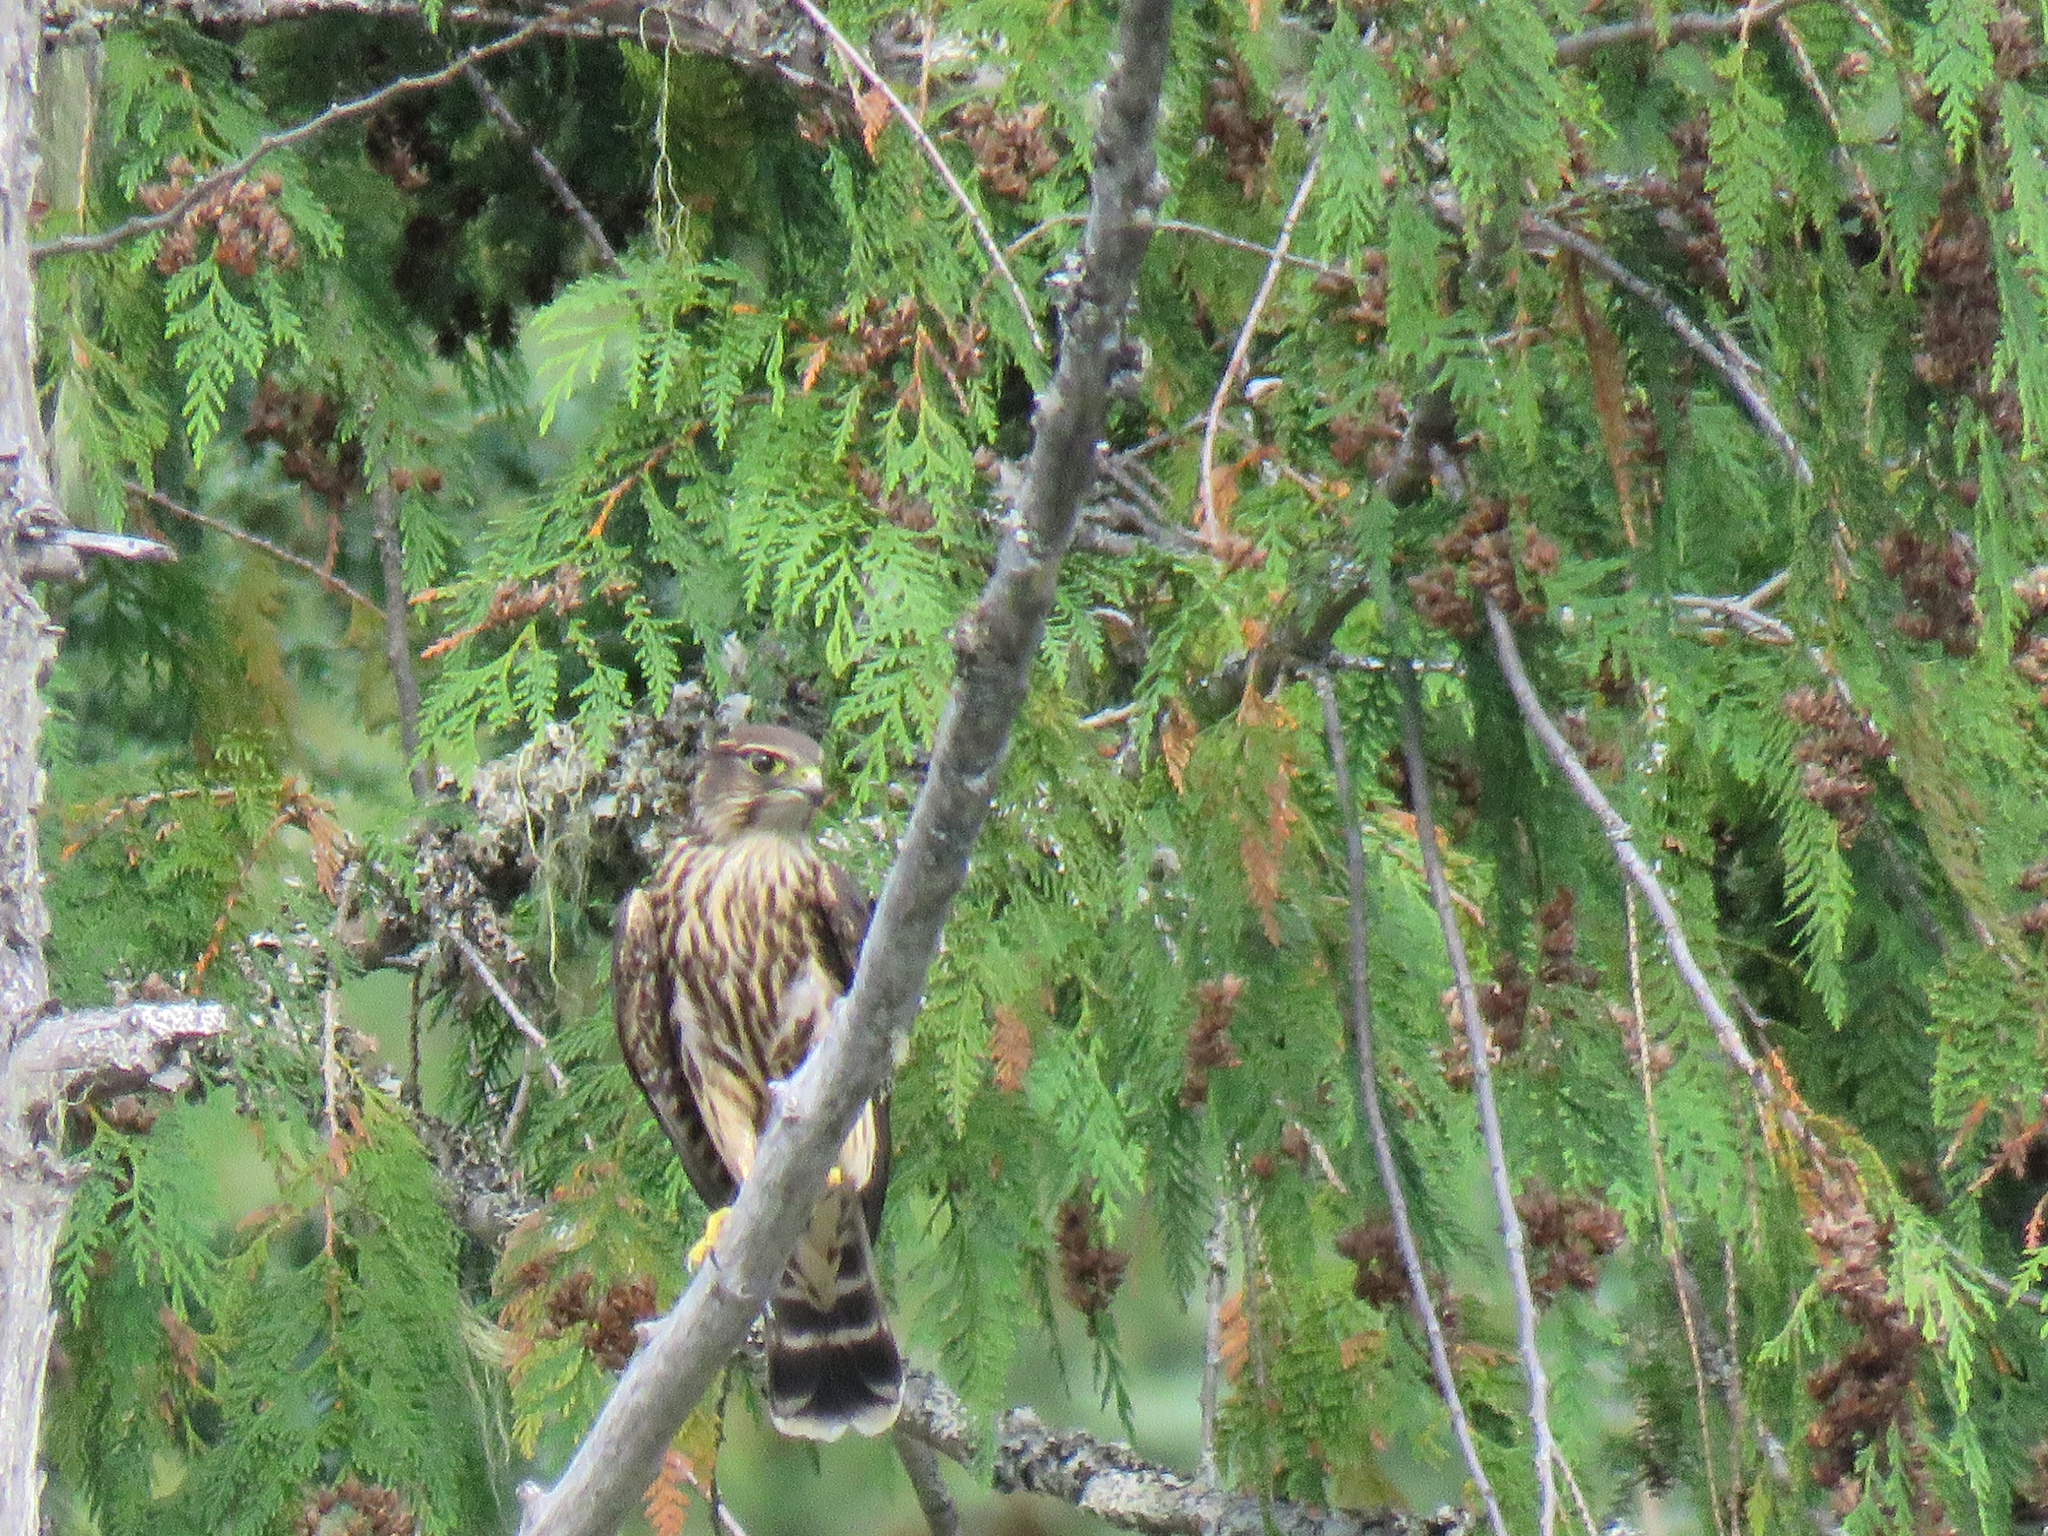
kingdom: Animalia
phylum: Chordata
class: Aves
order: Falconiformes
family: Falconidae
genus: Falco
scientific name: Falco columbarius
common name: Merlin
